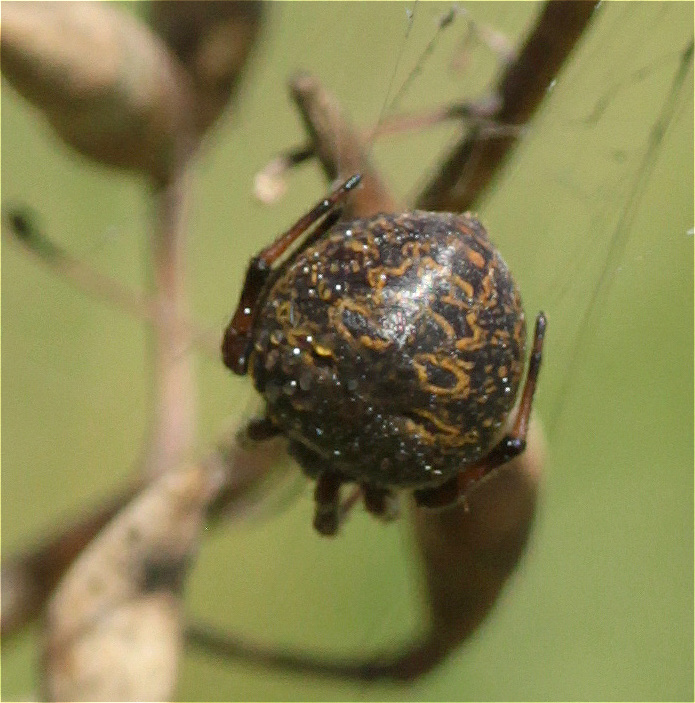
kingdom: Animalia
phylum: Arthropoda
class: Arachnida
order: Araneae
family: Araneidae
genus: Araneus
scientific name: Araneus granadensis
